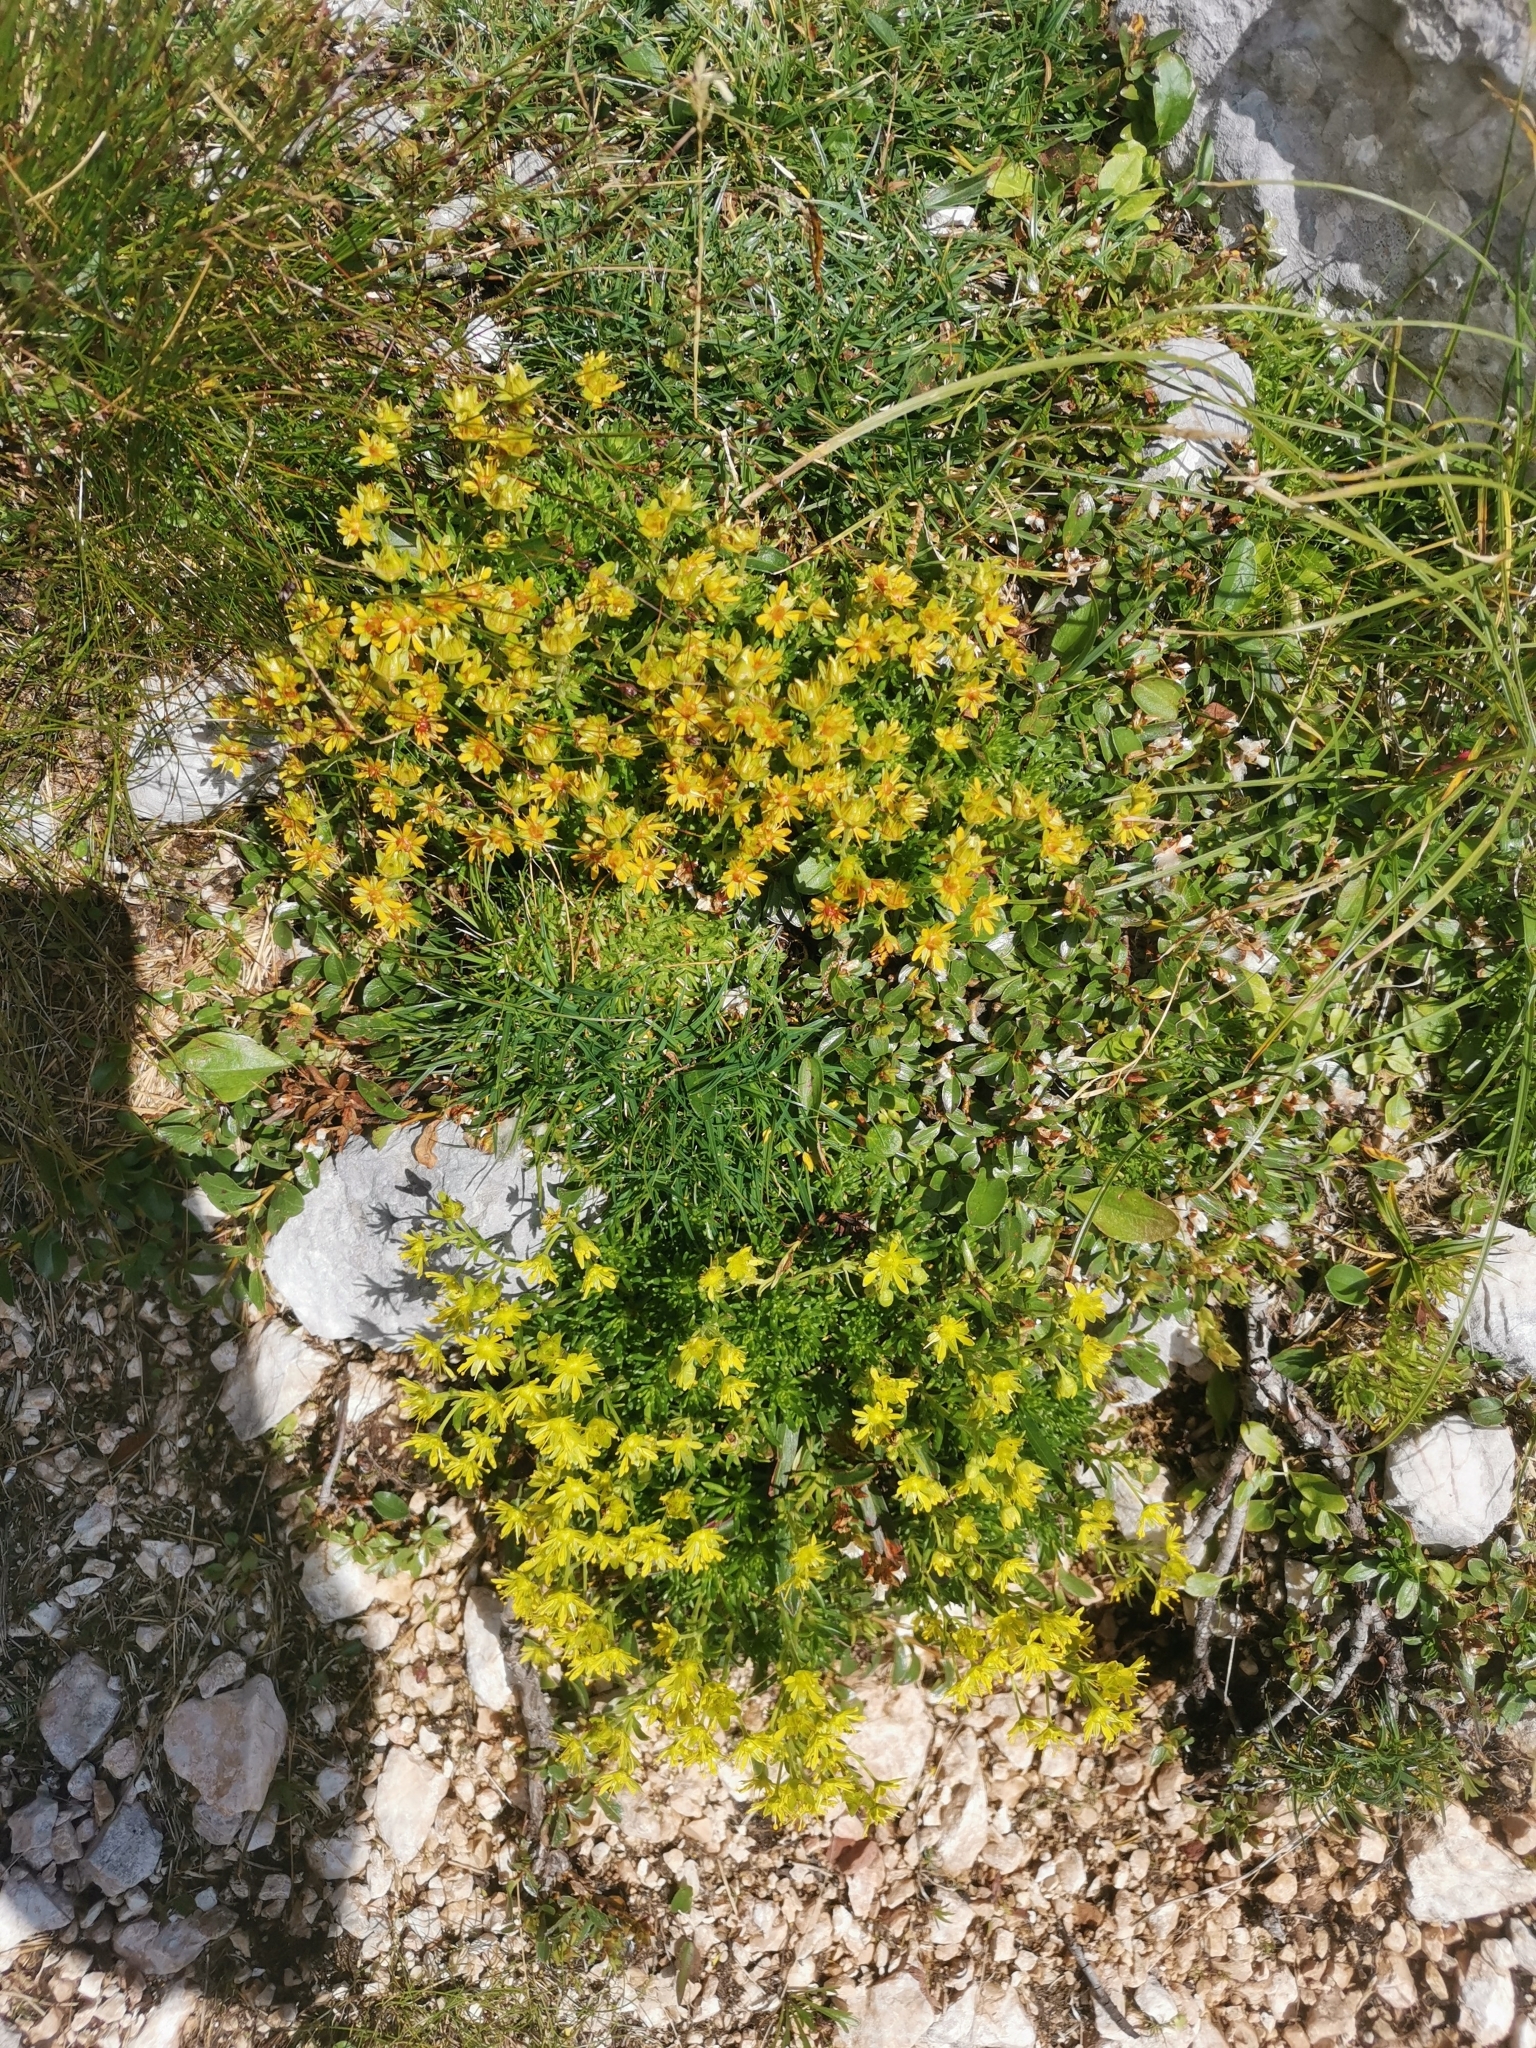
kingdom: Plantae
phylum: Tracheophyta
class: Magnoliopsida
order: Saxifragales
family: Saxifragaceae
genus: Saxifraga
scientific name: Saxifraga aizoides
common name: Yellow mountain saxifrage
